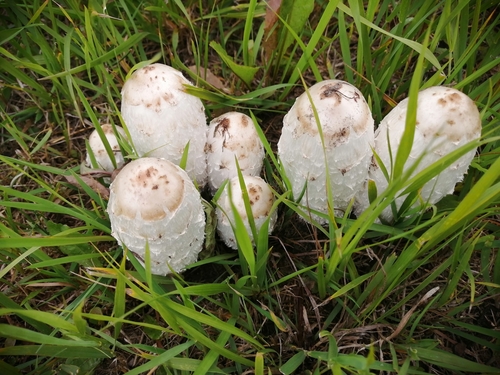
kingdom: Fungi
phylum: Basidiomycota
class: Agaricomycetes
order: Agaricales
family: Agaricaceae
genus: Coprinus
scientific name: Coprinus comatus
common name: Lawyer's wig
